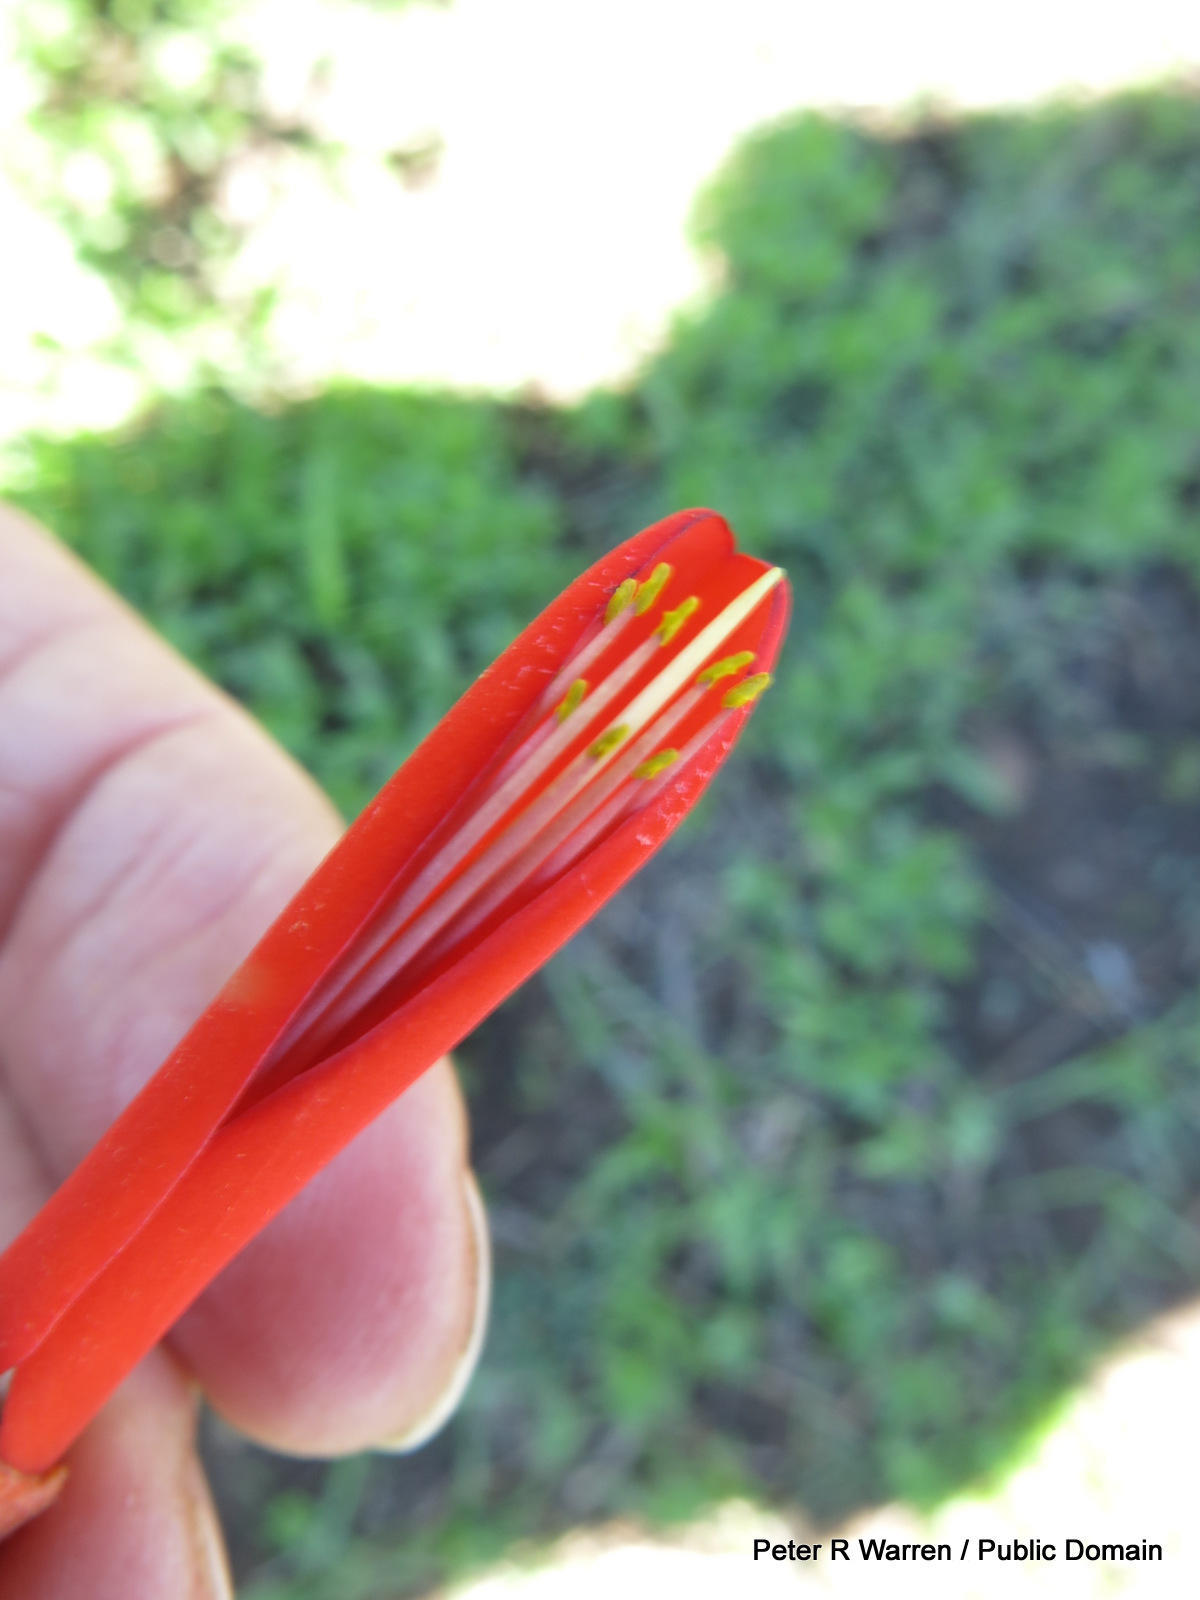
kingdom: Plantae
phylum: Tracheophyta
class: Magnoliopsida
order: Fabales
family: Fabaceae
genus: Erythrina
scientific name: Erythrina zeyheri
